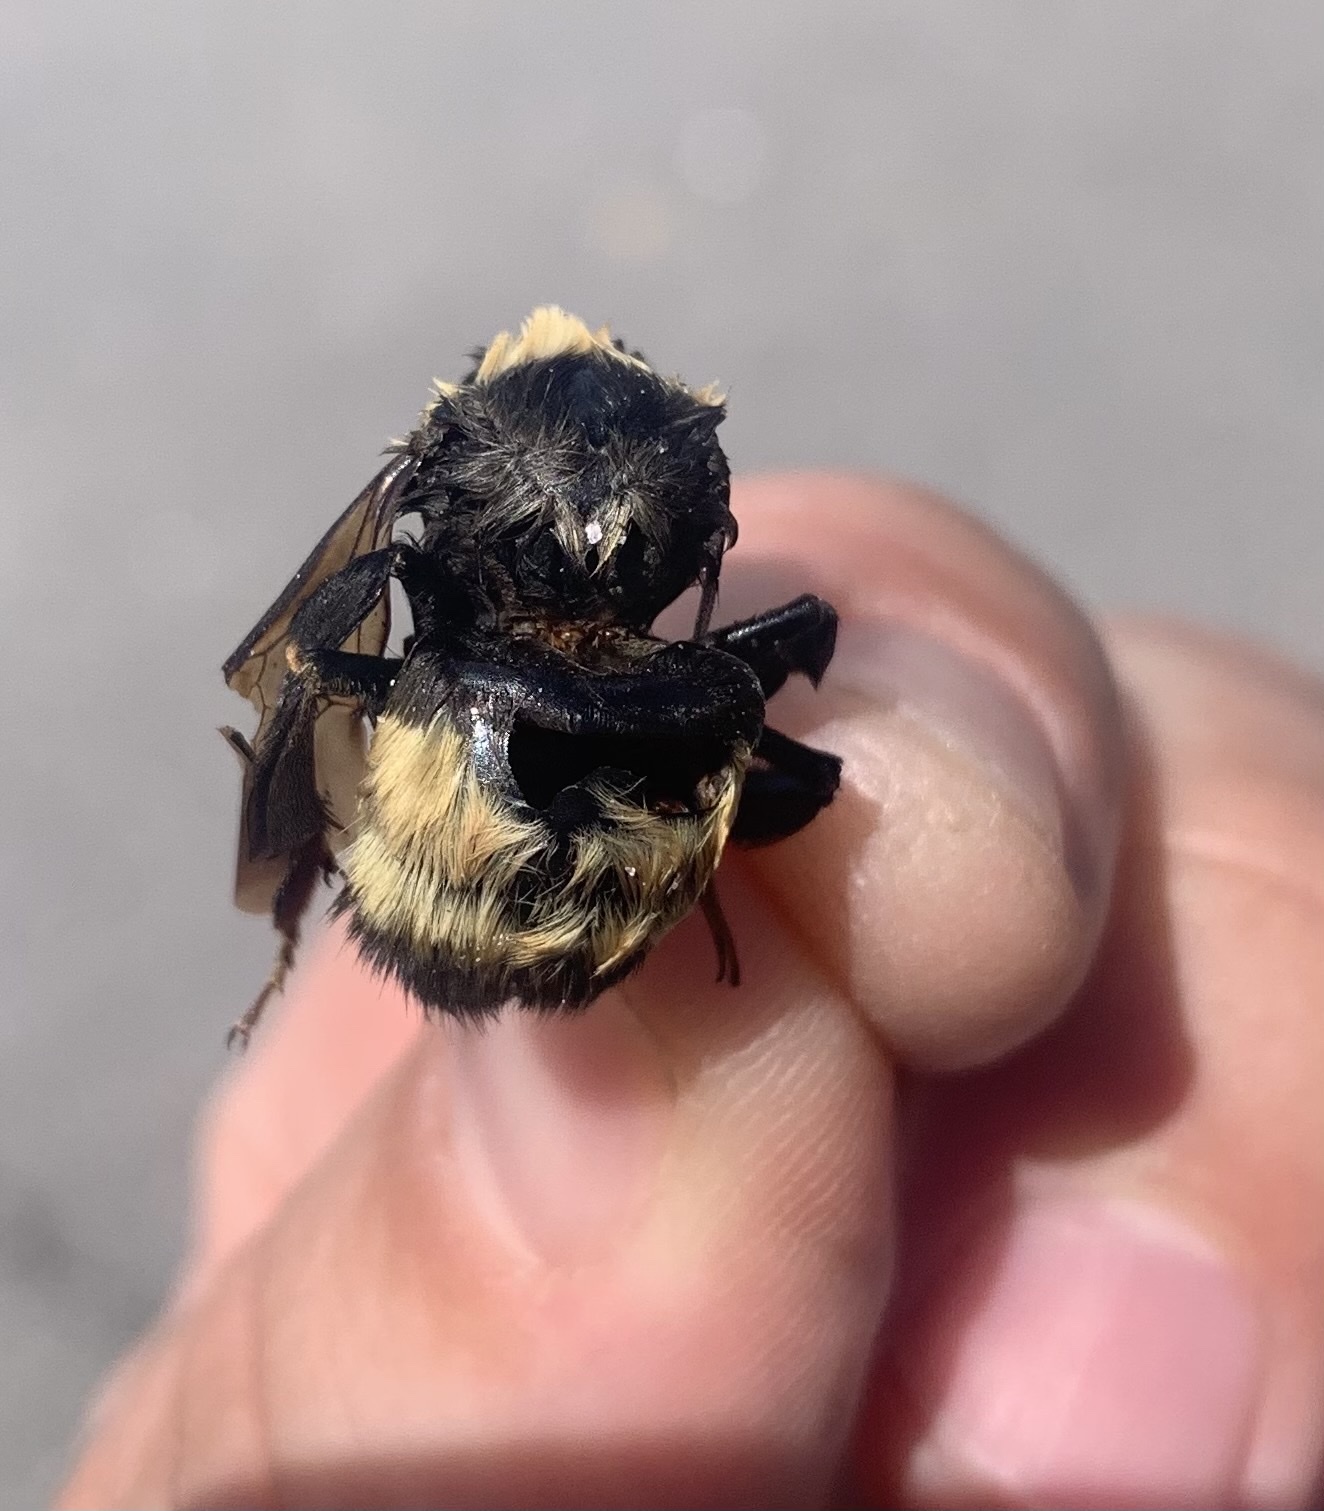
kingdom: Animalia
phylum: Arthropoda
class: Insecta
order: Hymenoptera
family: Apidae
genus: Bombus
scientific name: Bombus pensylvanicus
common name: Bumble bee
